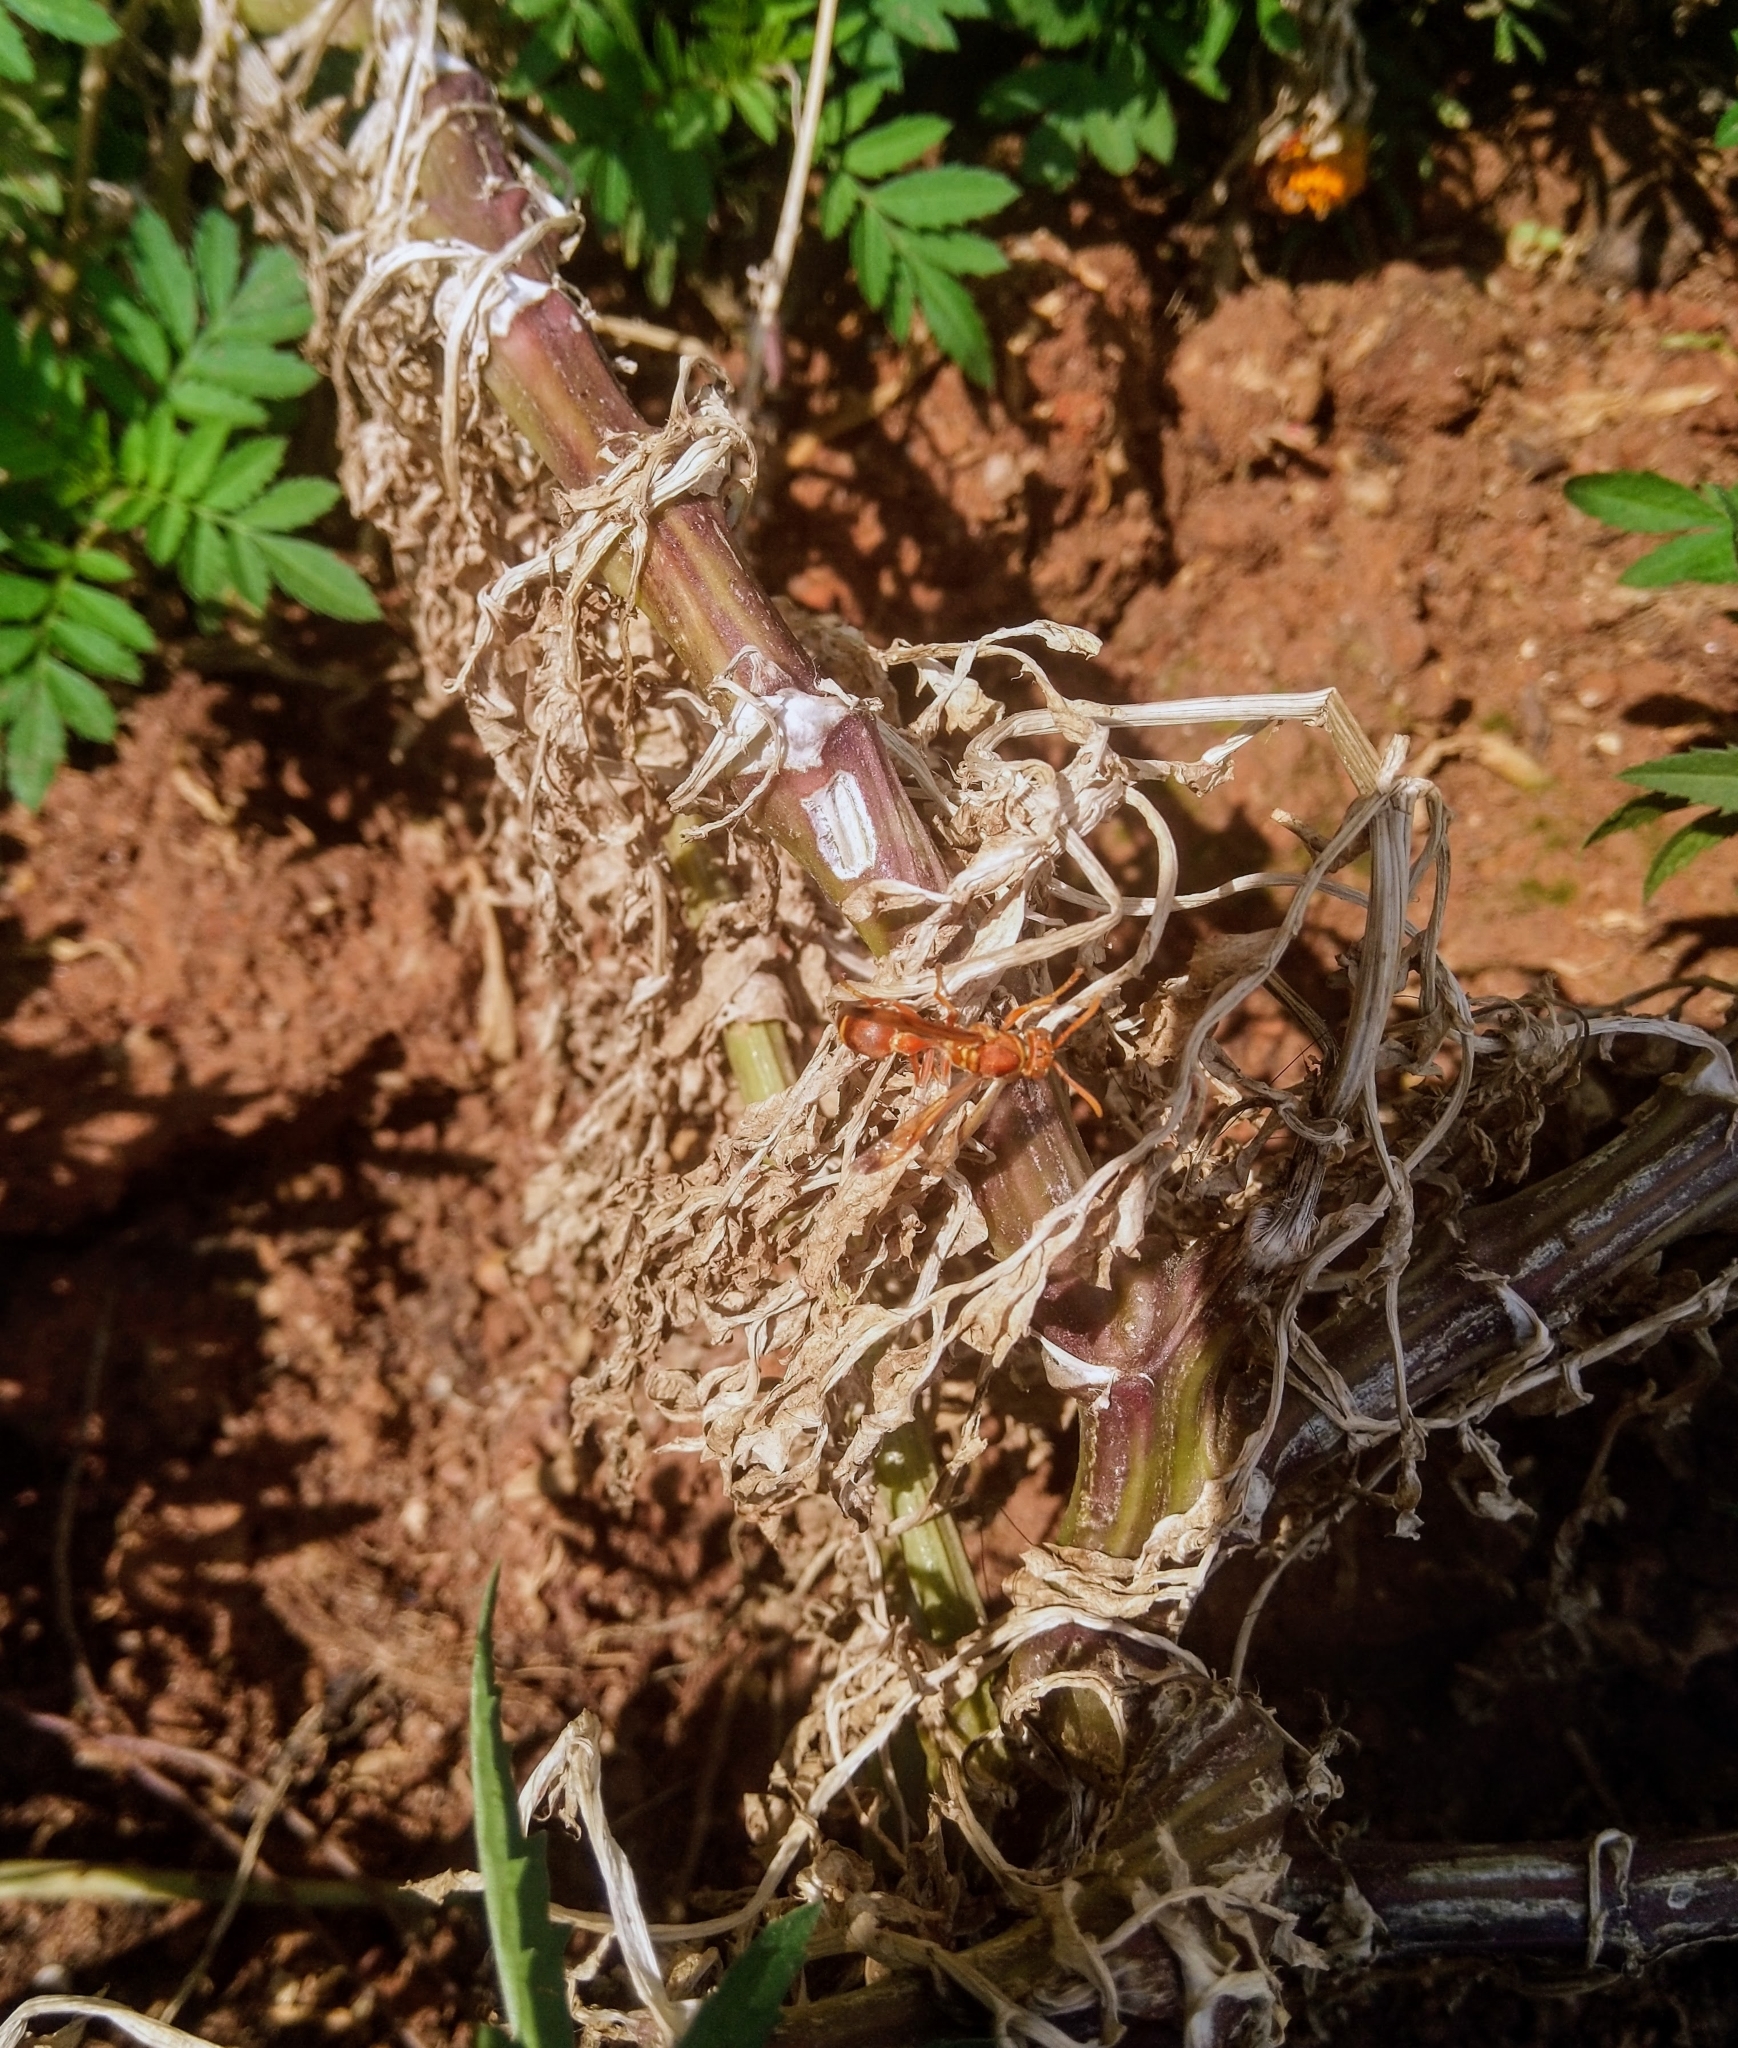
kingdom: Animalia
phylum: Arthropoda
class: Insecta
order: Hymenoptera
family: Vespidae
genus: Ropalidia
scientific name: Ropalidia marginata
